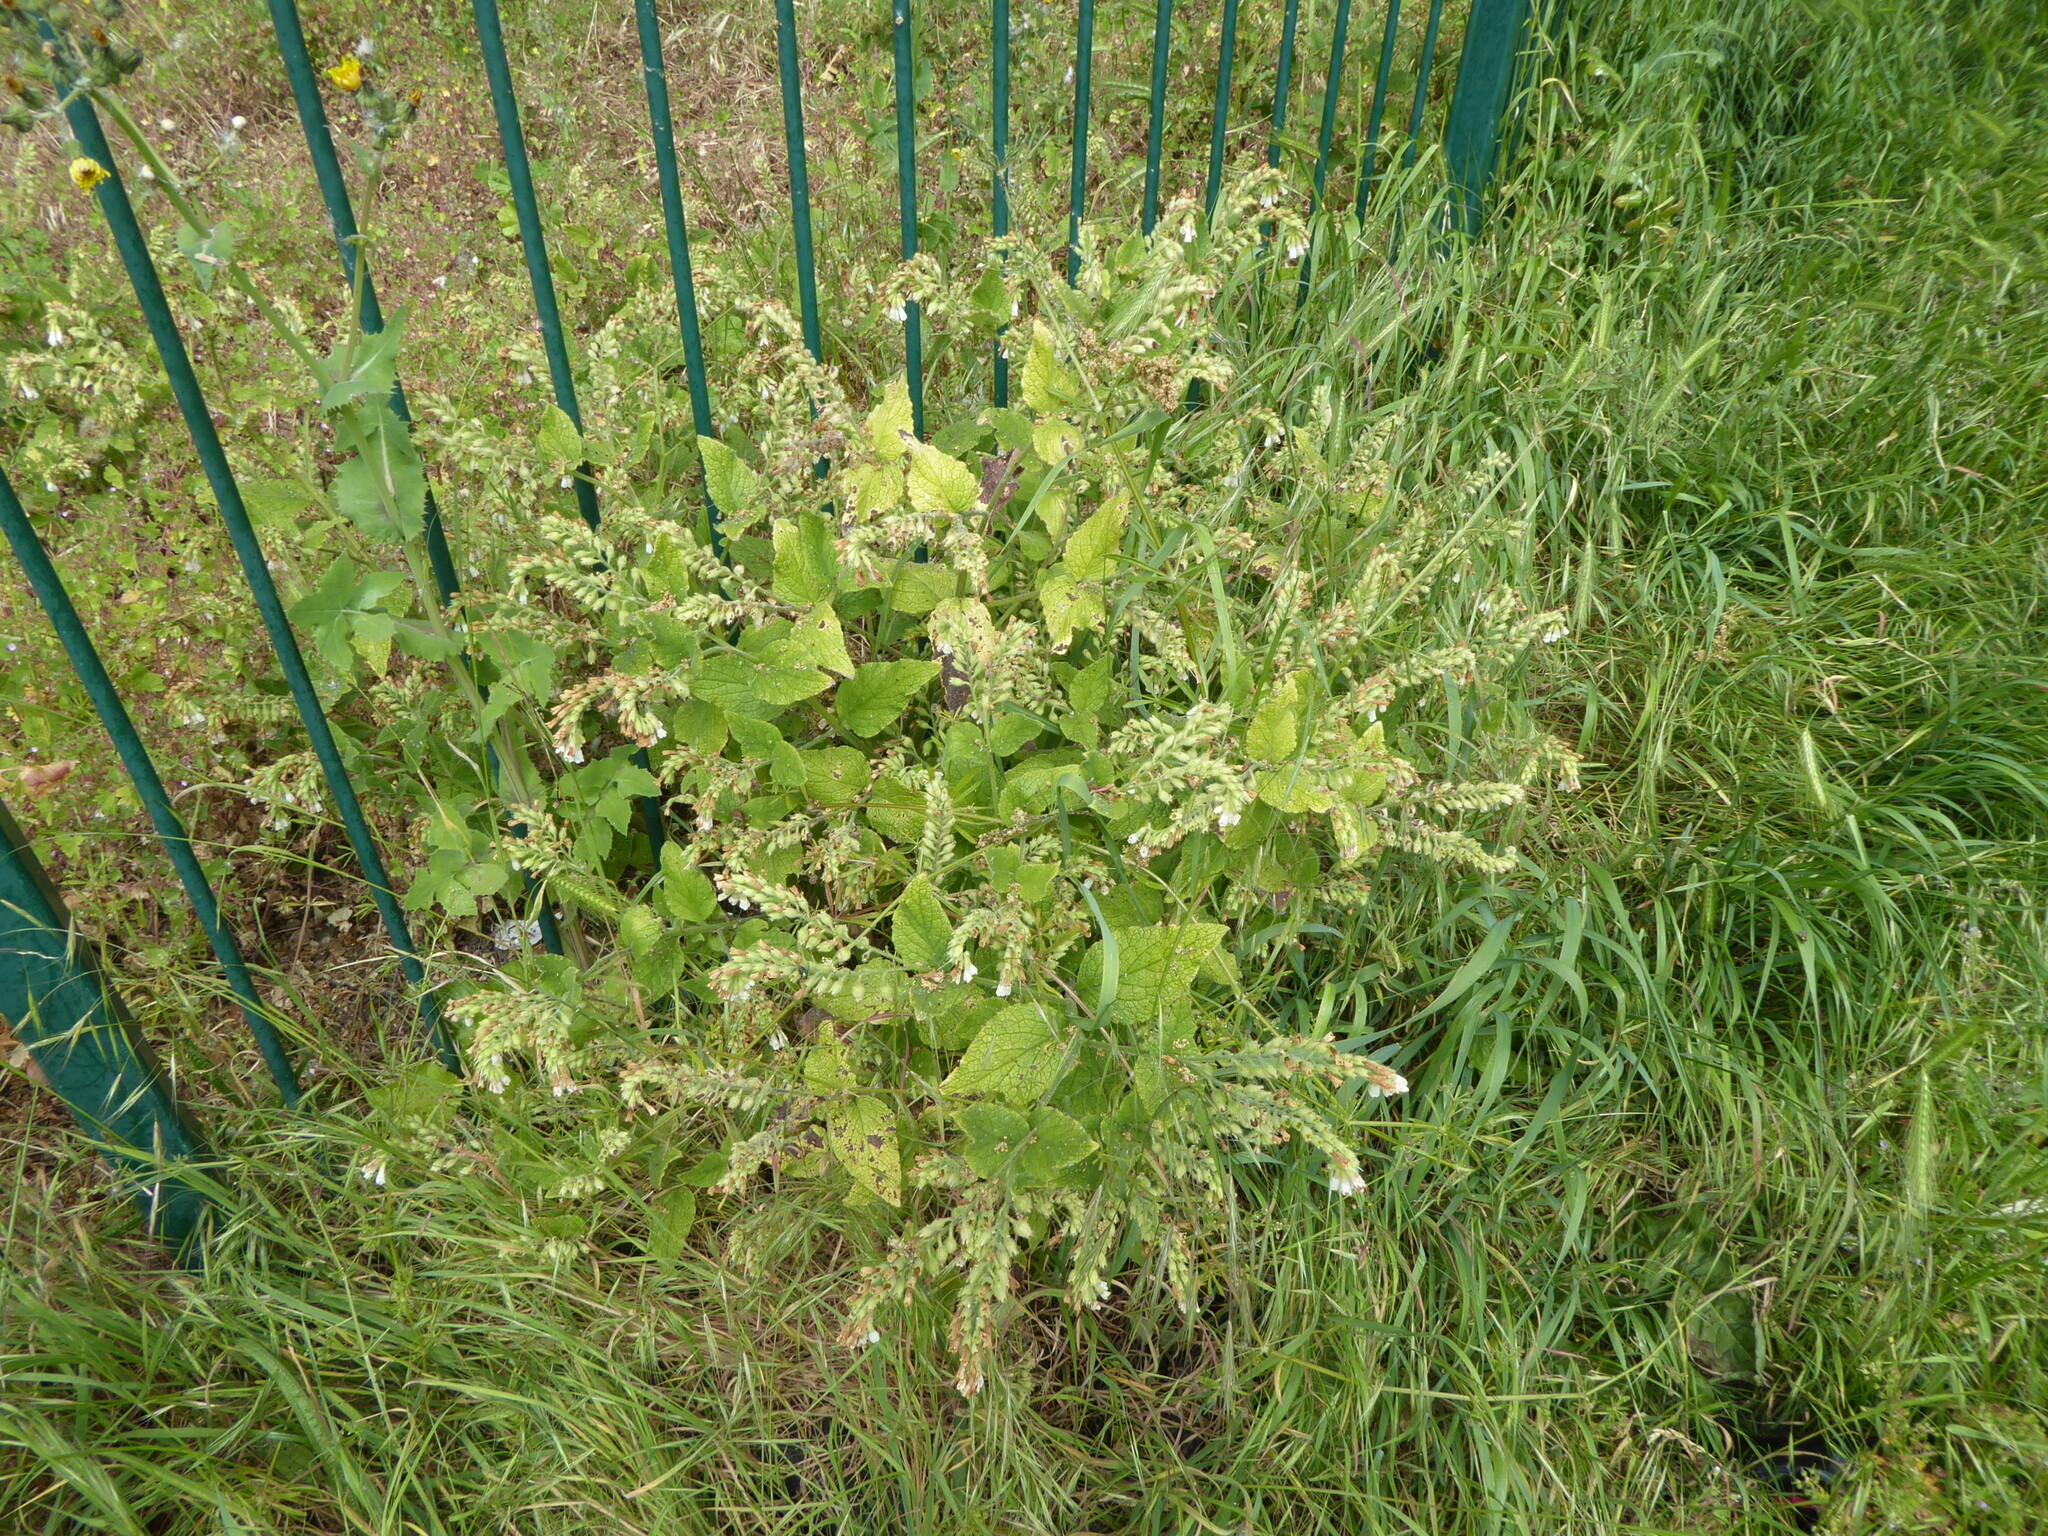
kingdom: Plantae
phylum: Tracheophyta
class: Magnoliopsida
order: Boraginales
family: Boraginaceae
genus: Symphytum
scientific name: Symphytum orientale
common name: White comfrey
